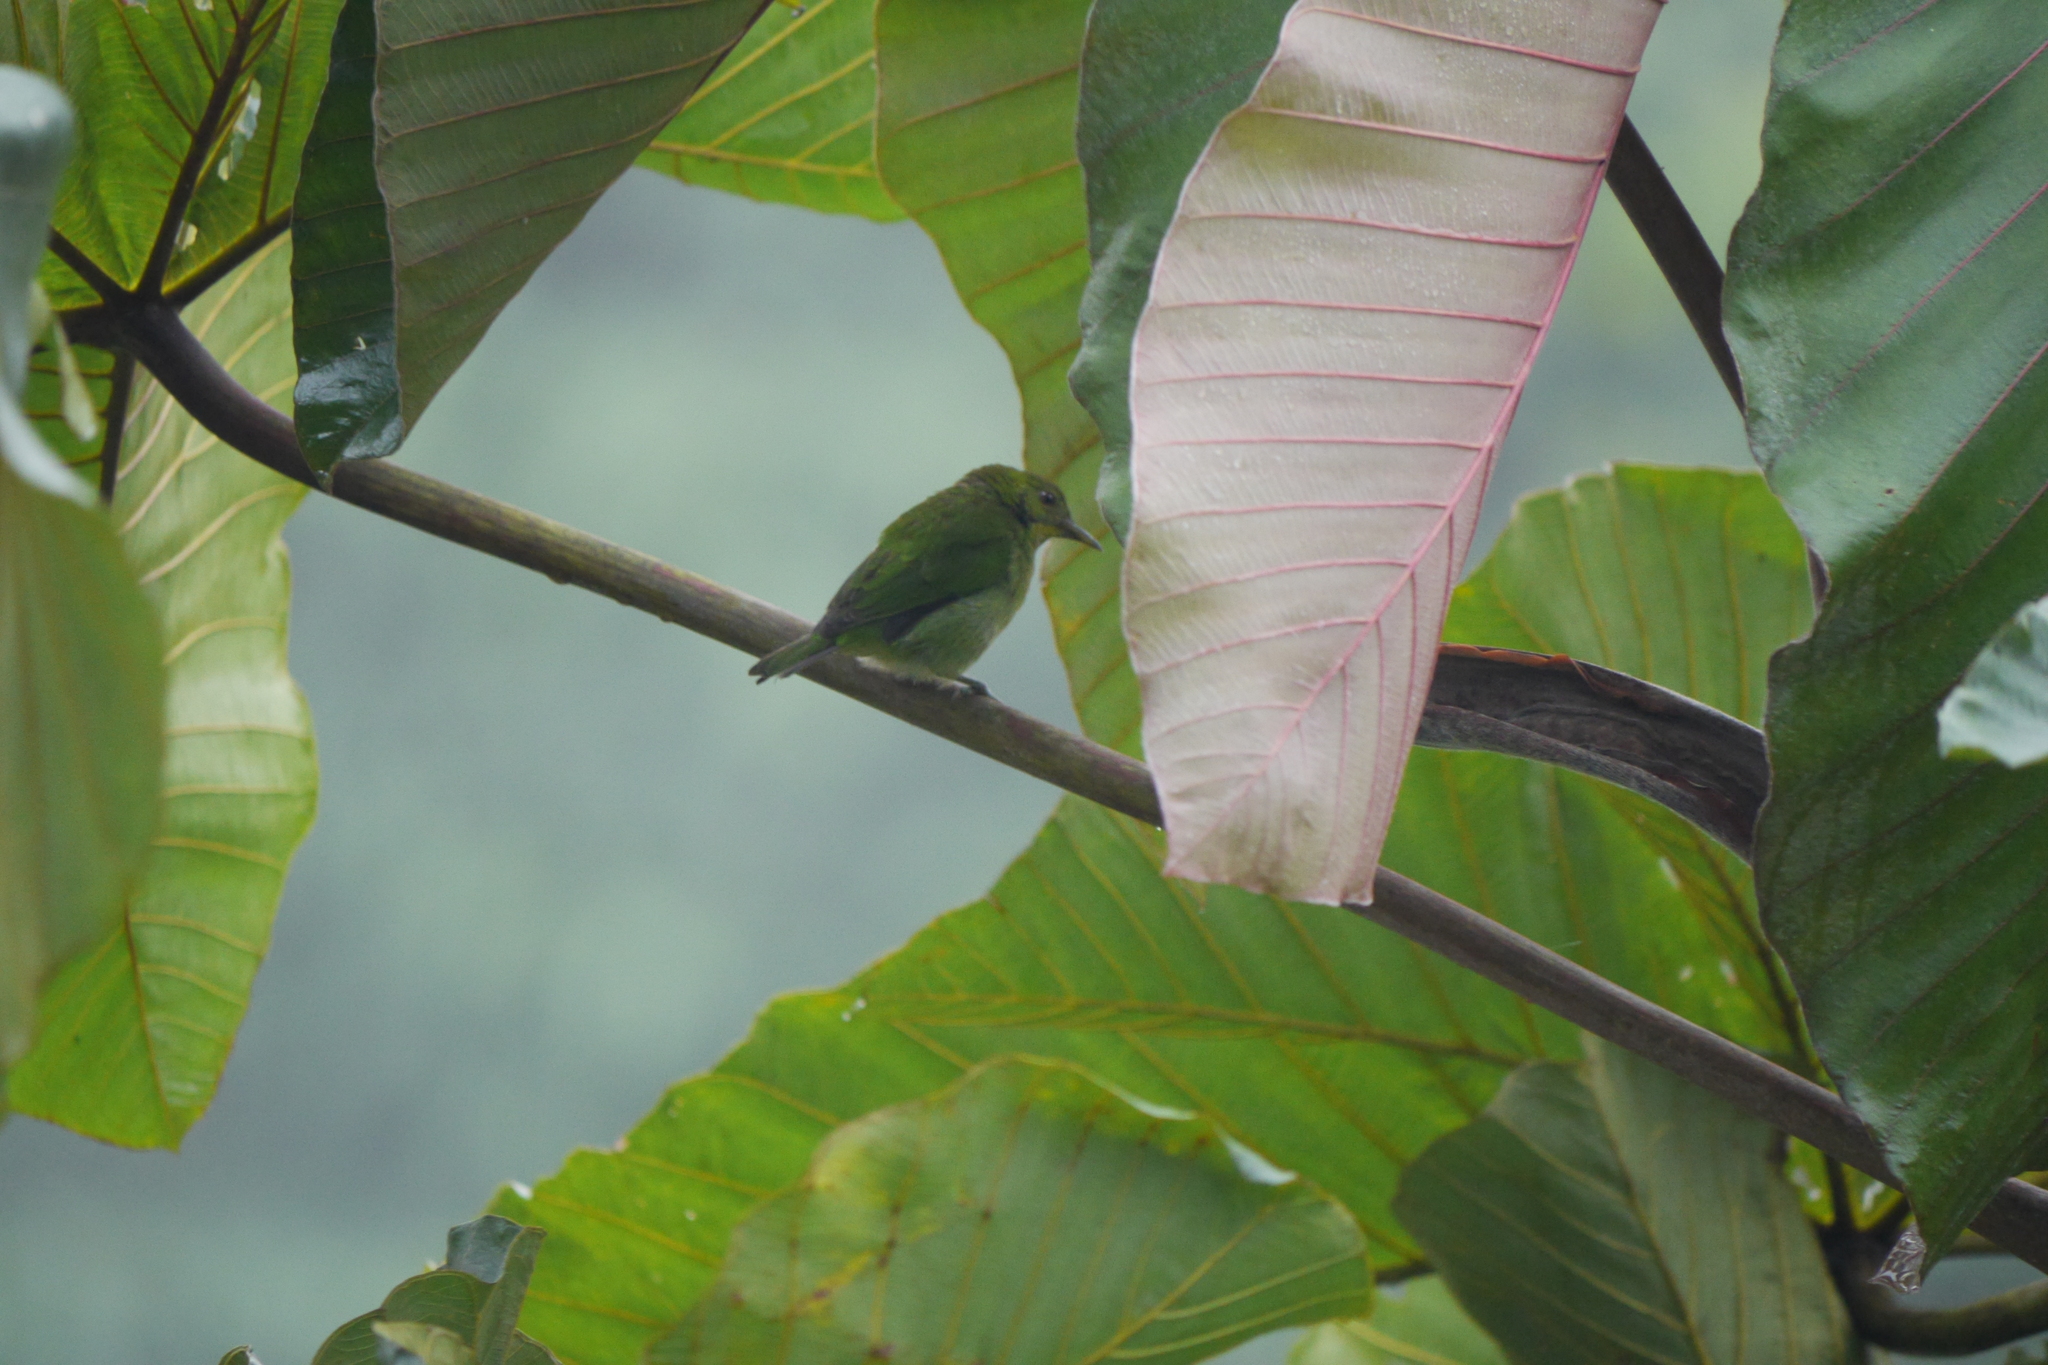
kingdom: Animalia
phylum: Chordata
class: Aves
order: Passeriformes
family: Thraupidae
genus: Chlorophanes
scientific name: Chlorophanes spiza
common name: Green honeycreeper
